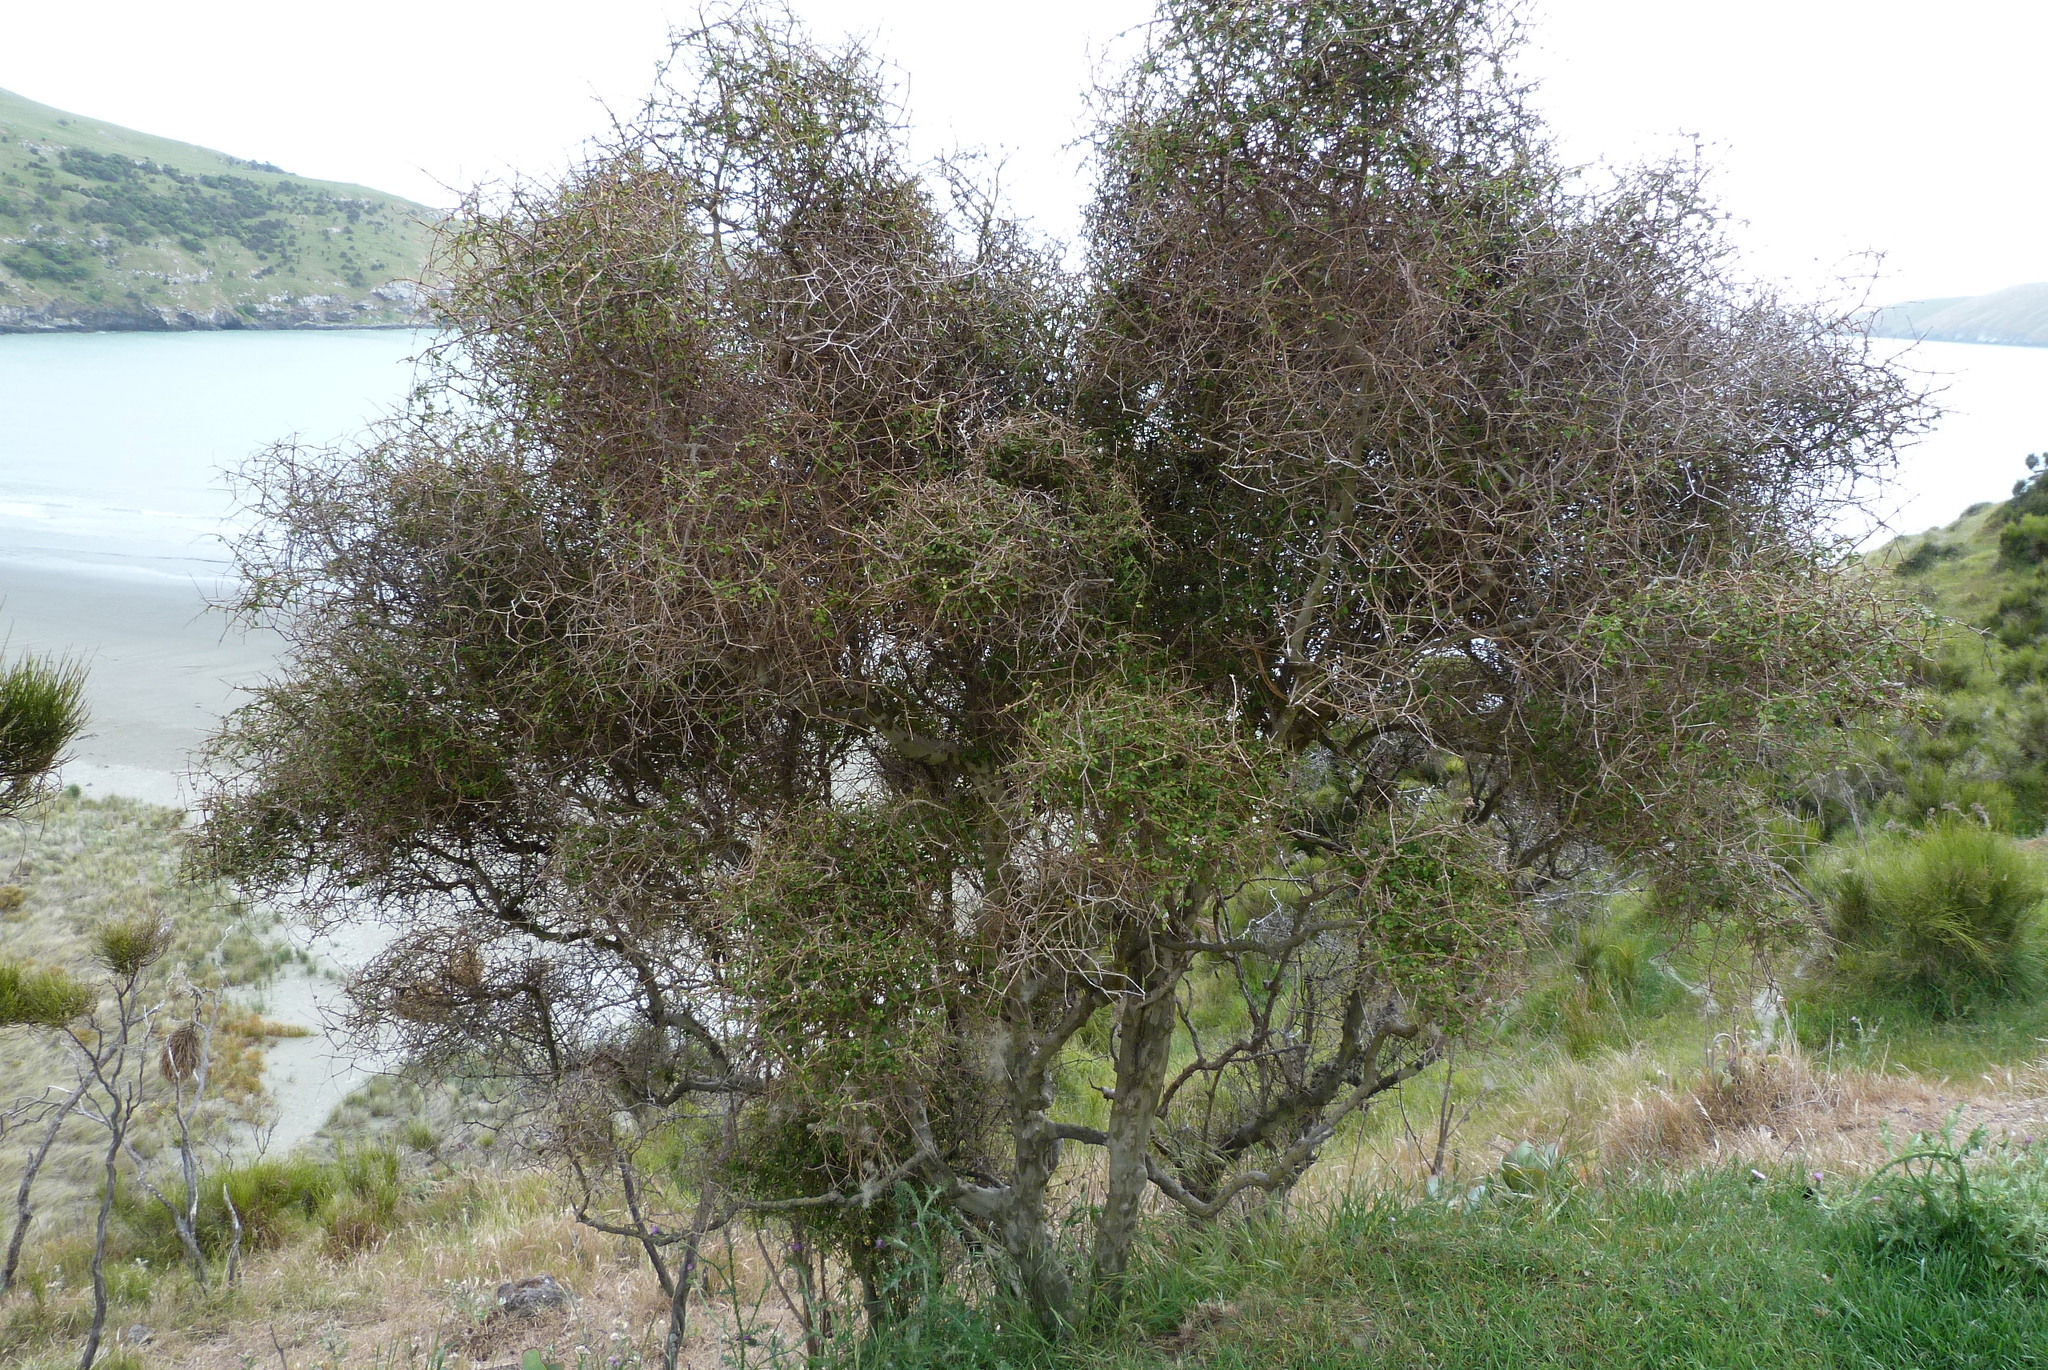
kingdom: Plantae
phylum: Tracheophyta
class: Magnoliopsida
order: Gentianales
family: Rubiaceae
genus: Coprosma
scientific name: Coprosma virescens
